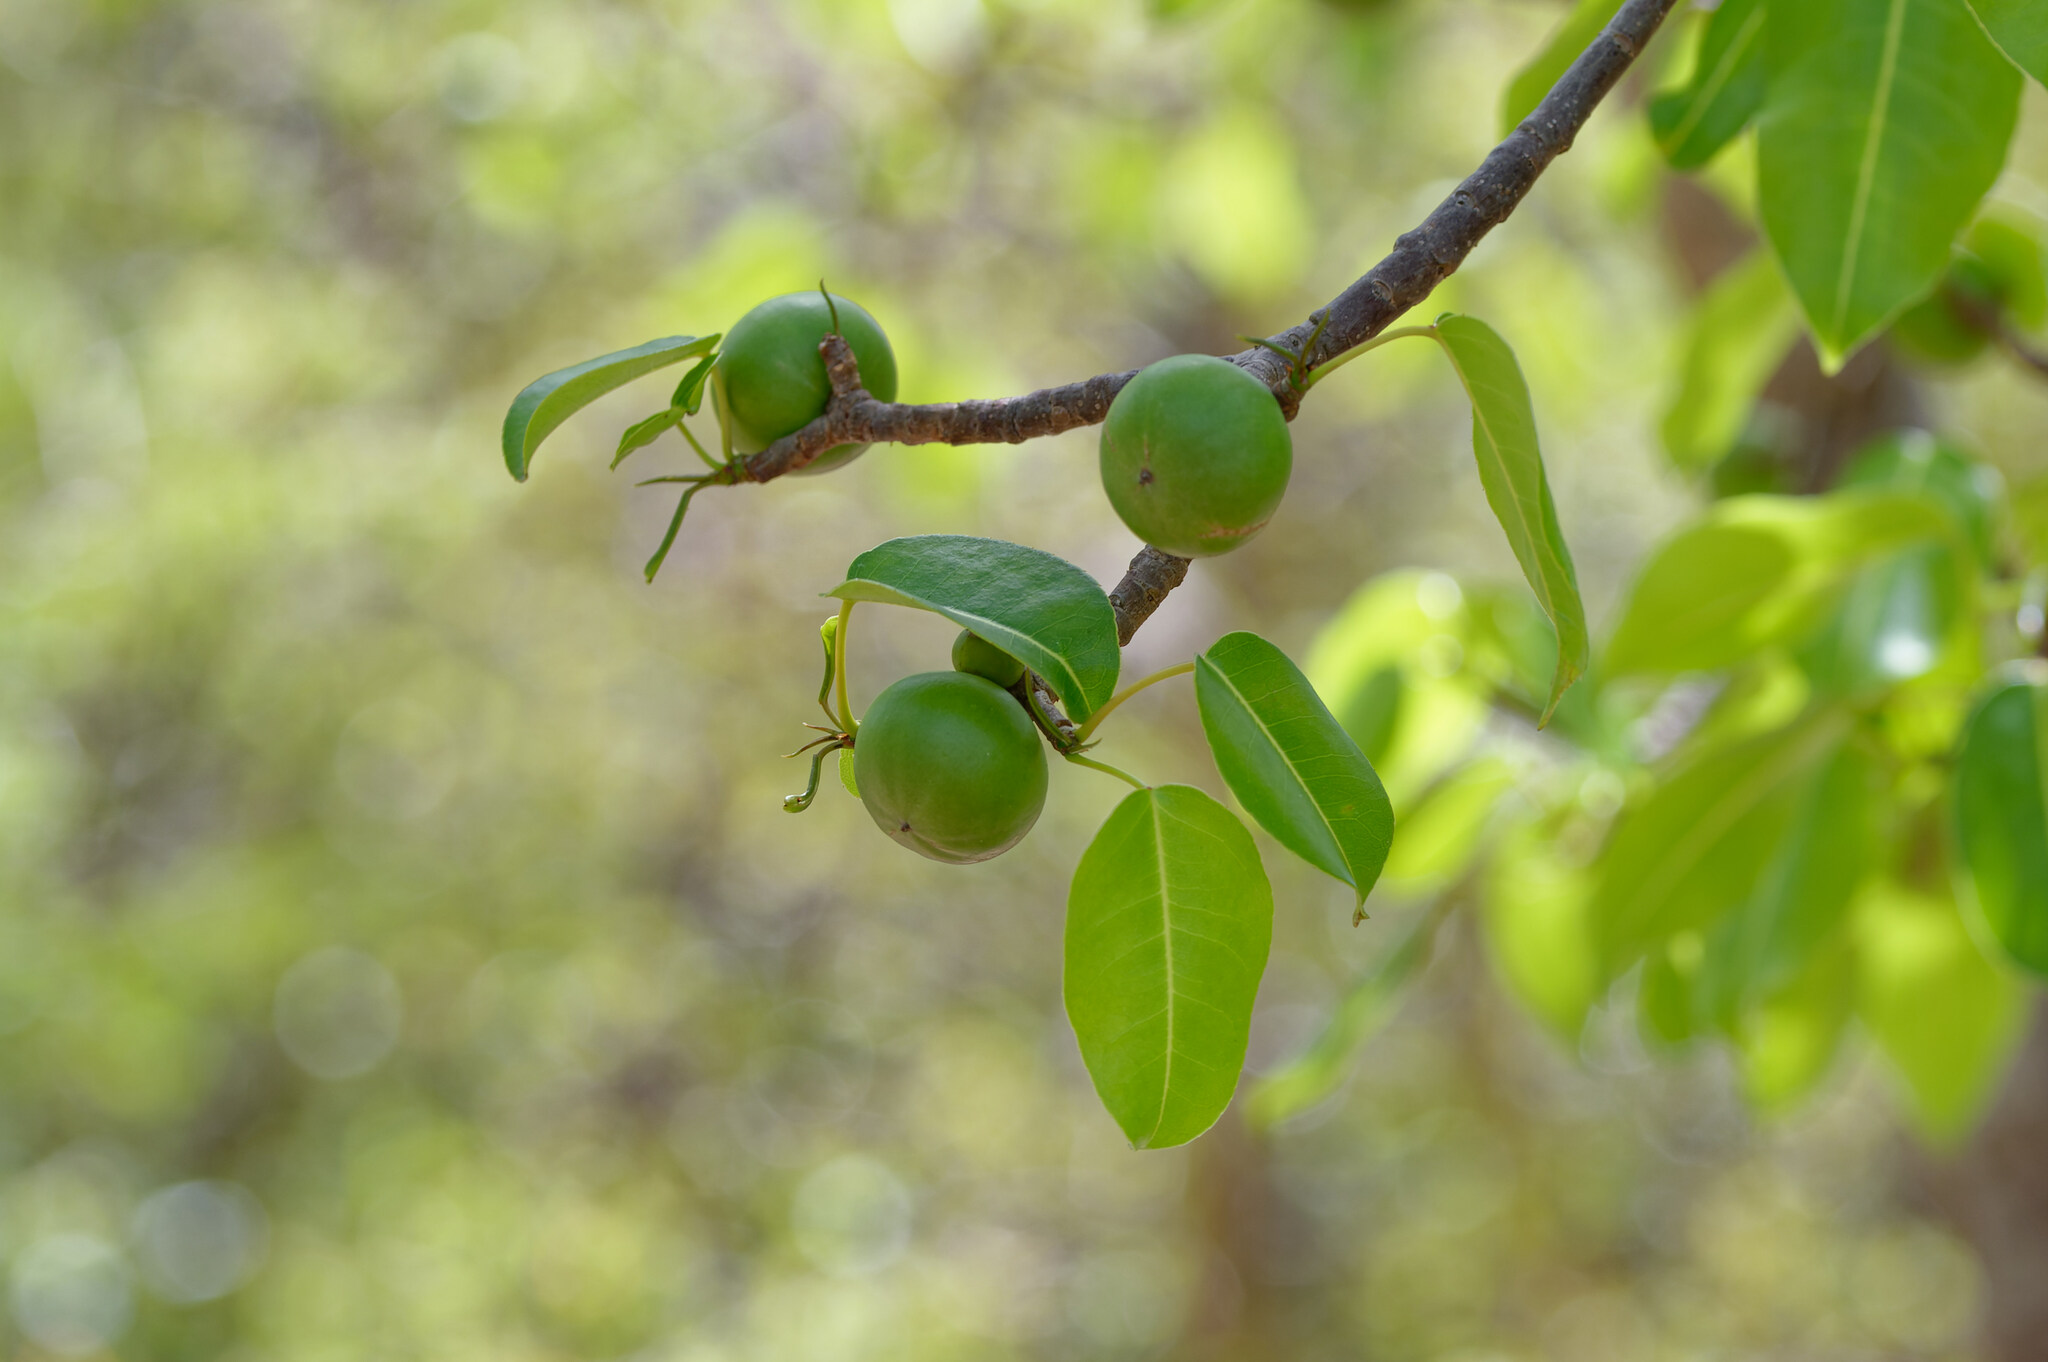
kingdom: Plantae
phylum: Tracheophyta
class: Magnoliopsida
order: Malpighiales
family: Euphorbiaceae
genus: Hippomane
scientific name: Hippomane mancinella
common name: Manchineel
